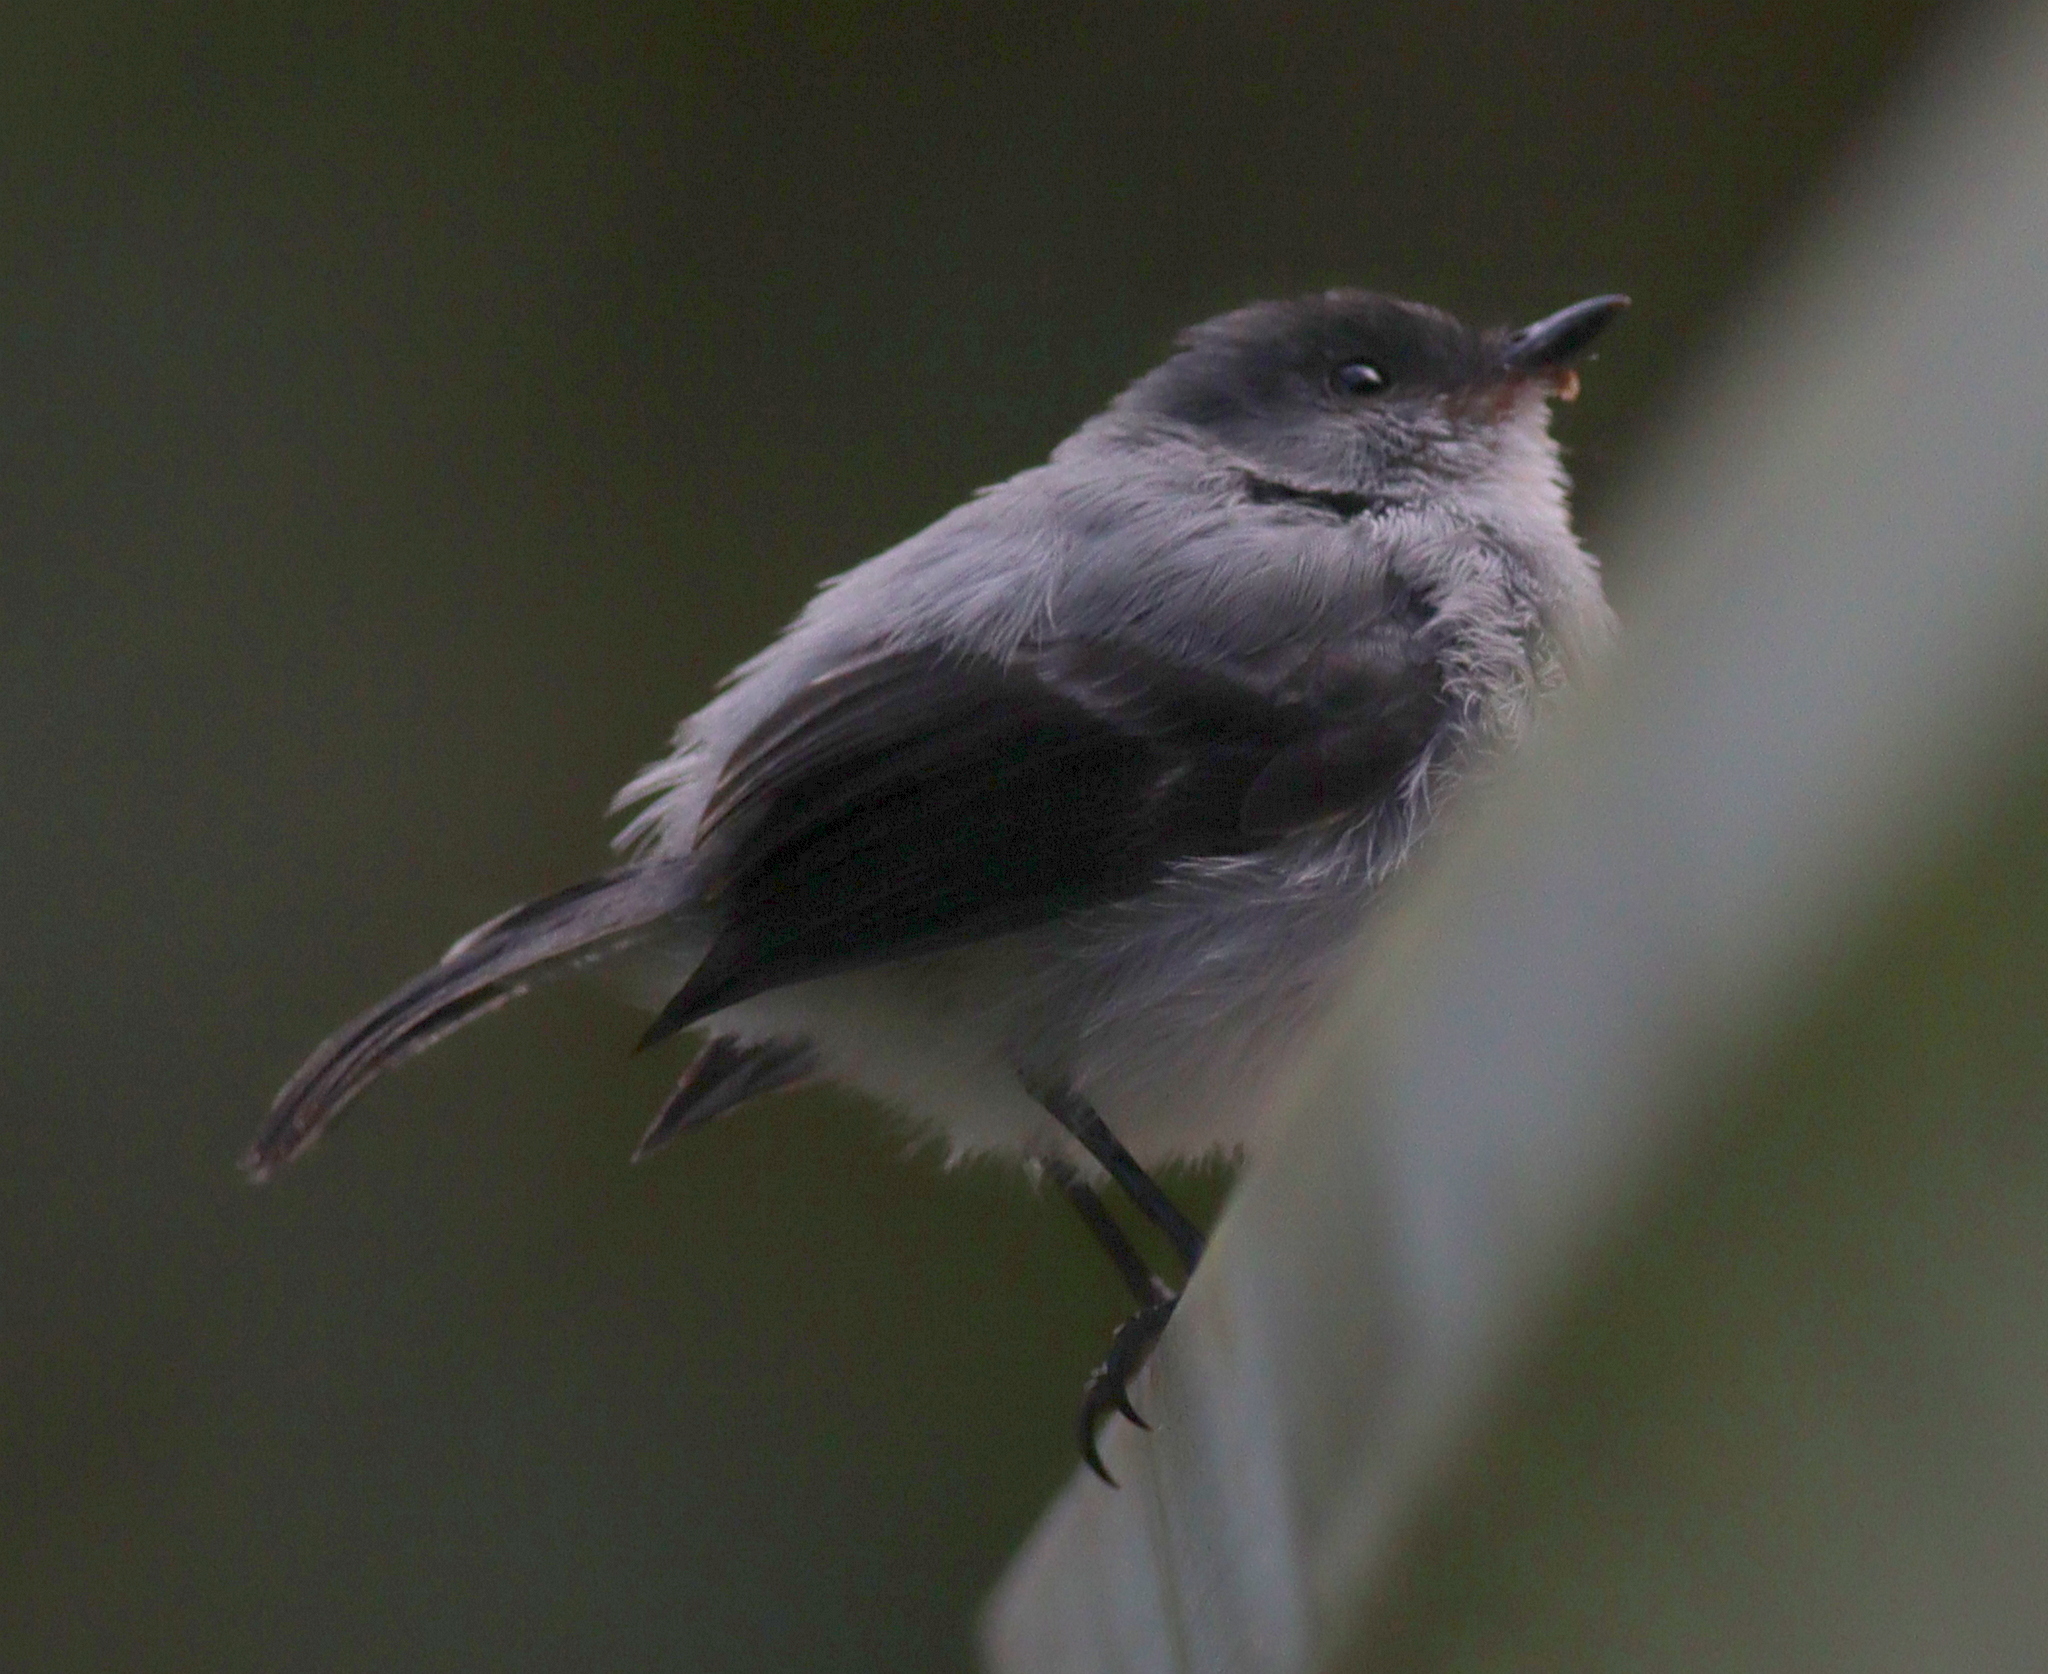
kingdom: Animalia
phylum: Chordata
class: Aves
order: Passeriformes
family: Tyrannidae
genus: Serpophaga
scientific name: Serpophaga cinerea
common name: Torrent tyrannulet
